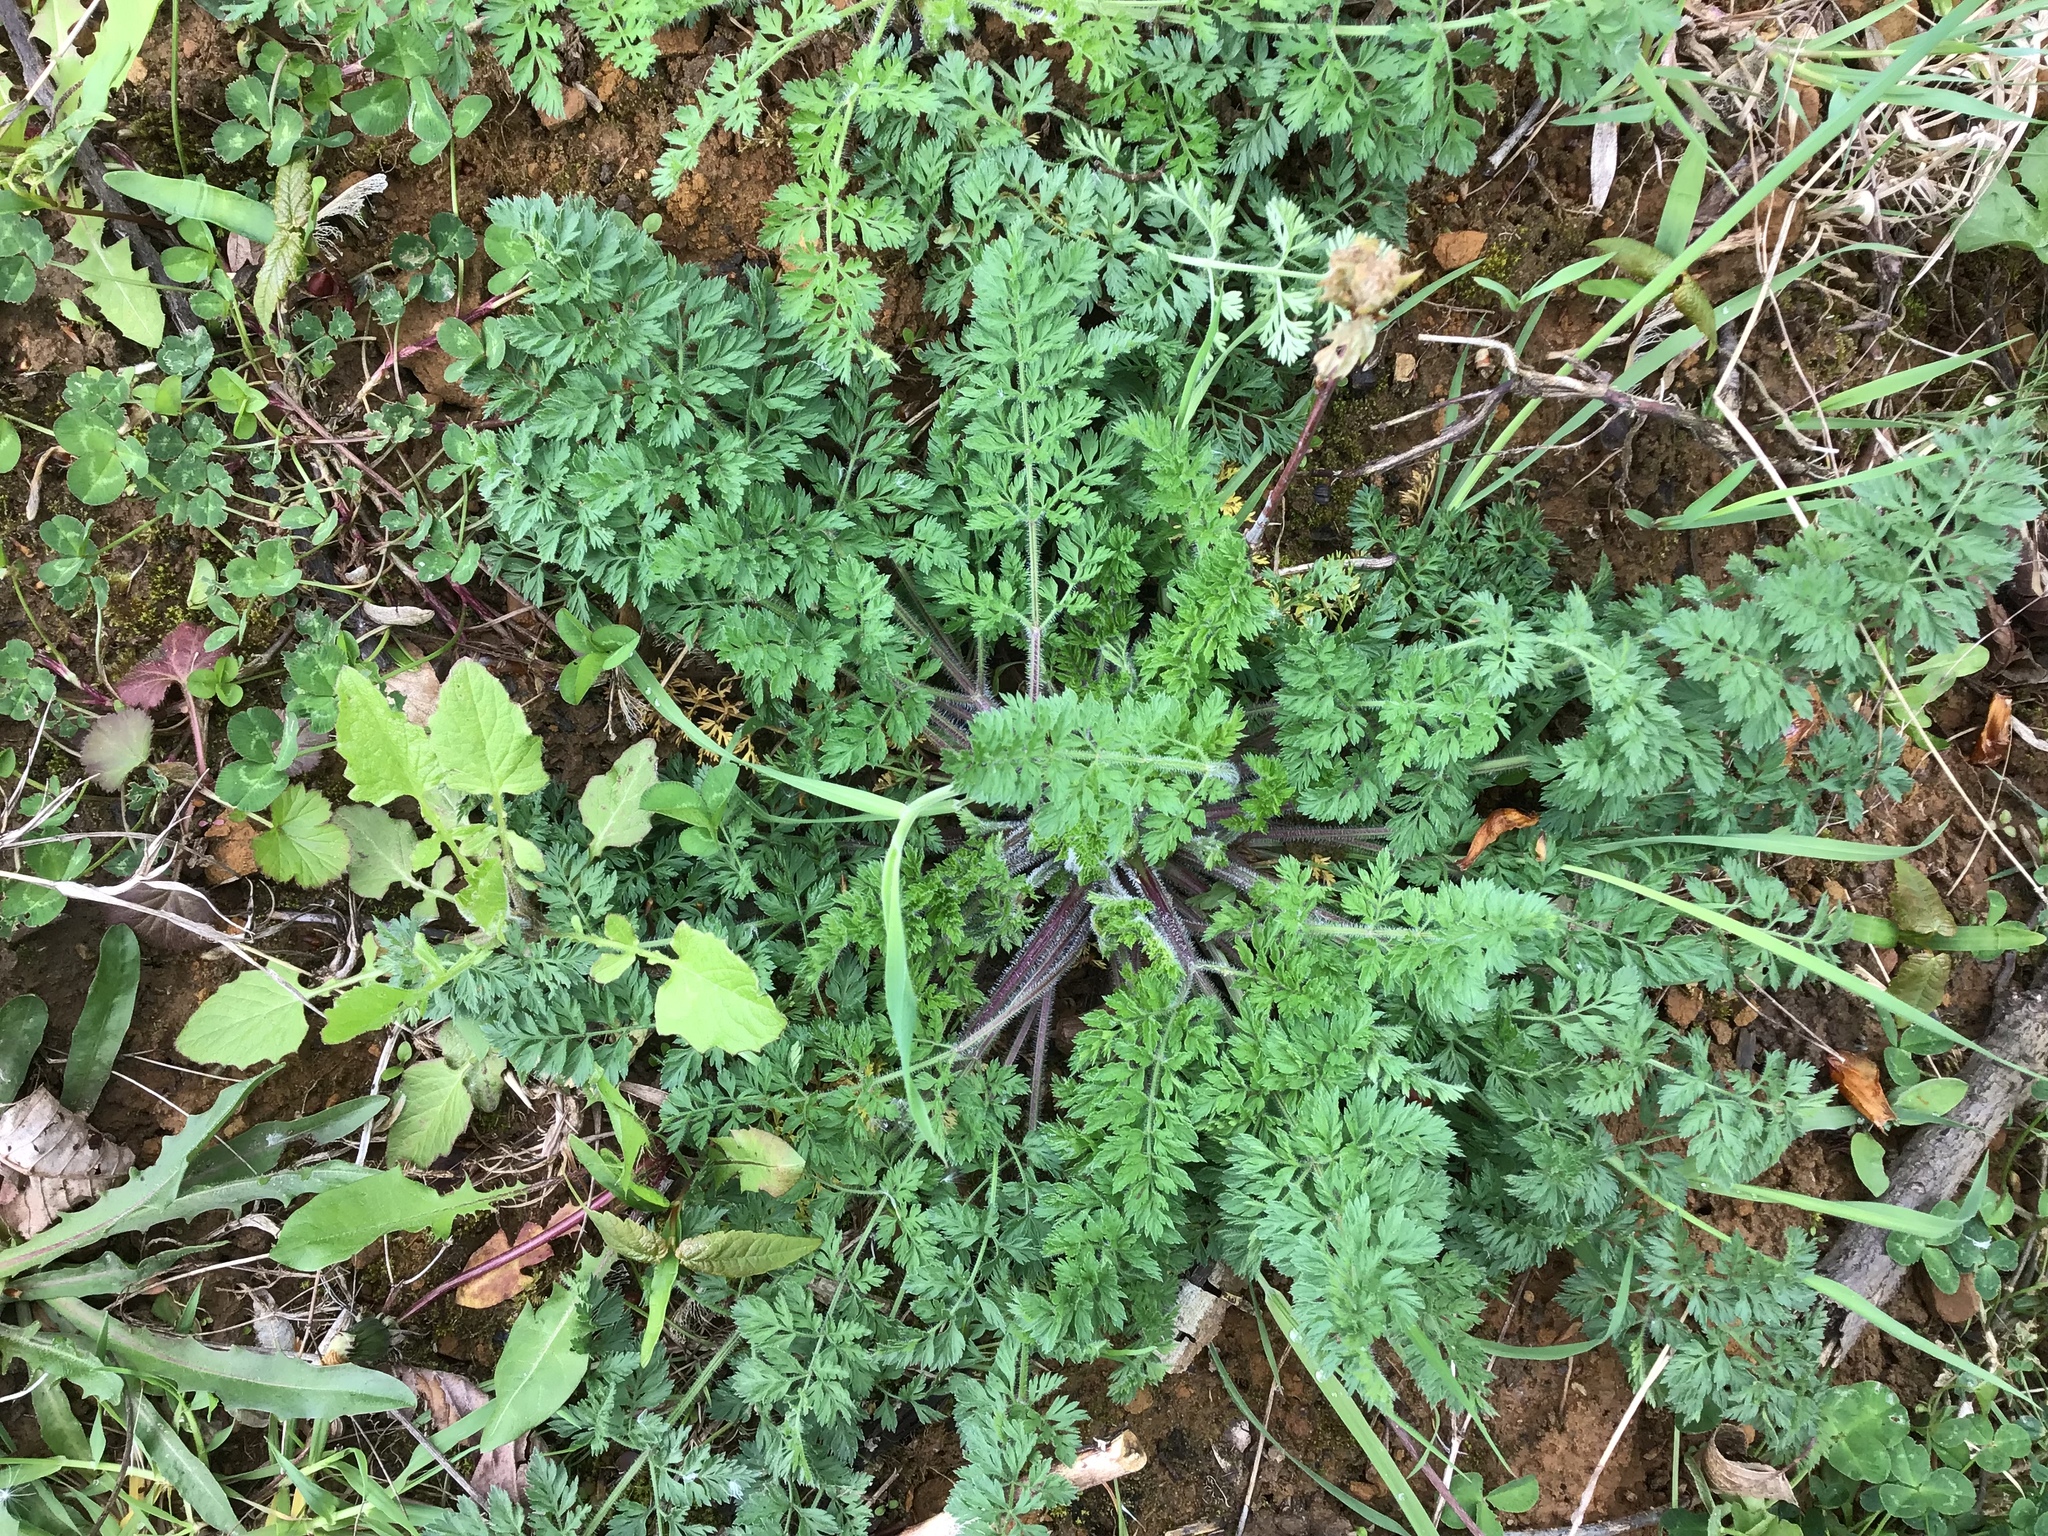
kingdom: Plantae
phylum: Tracheophyta
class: Magnoliopsida
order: Apiales
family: Apiaceae
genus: Daucus
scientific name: Daucus carota
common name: Wild carrot
